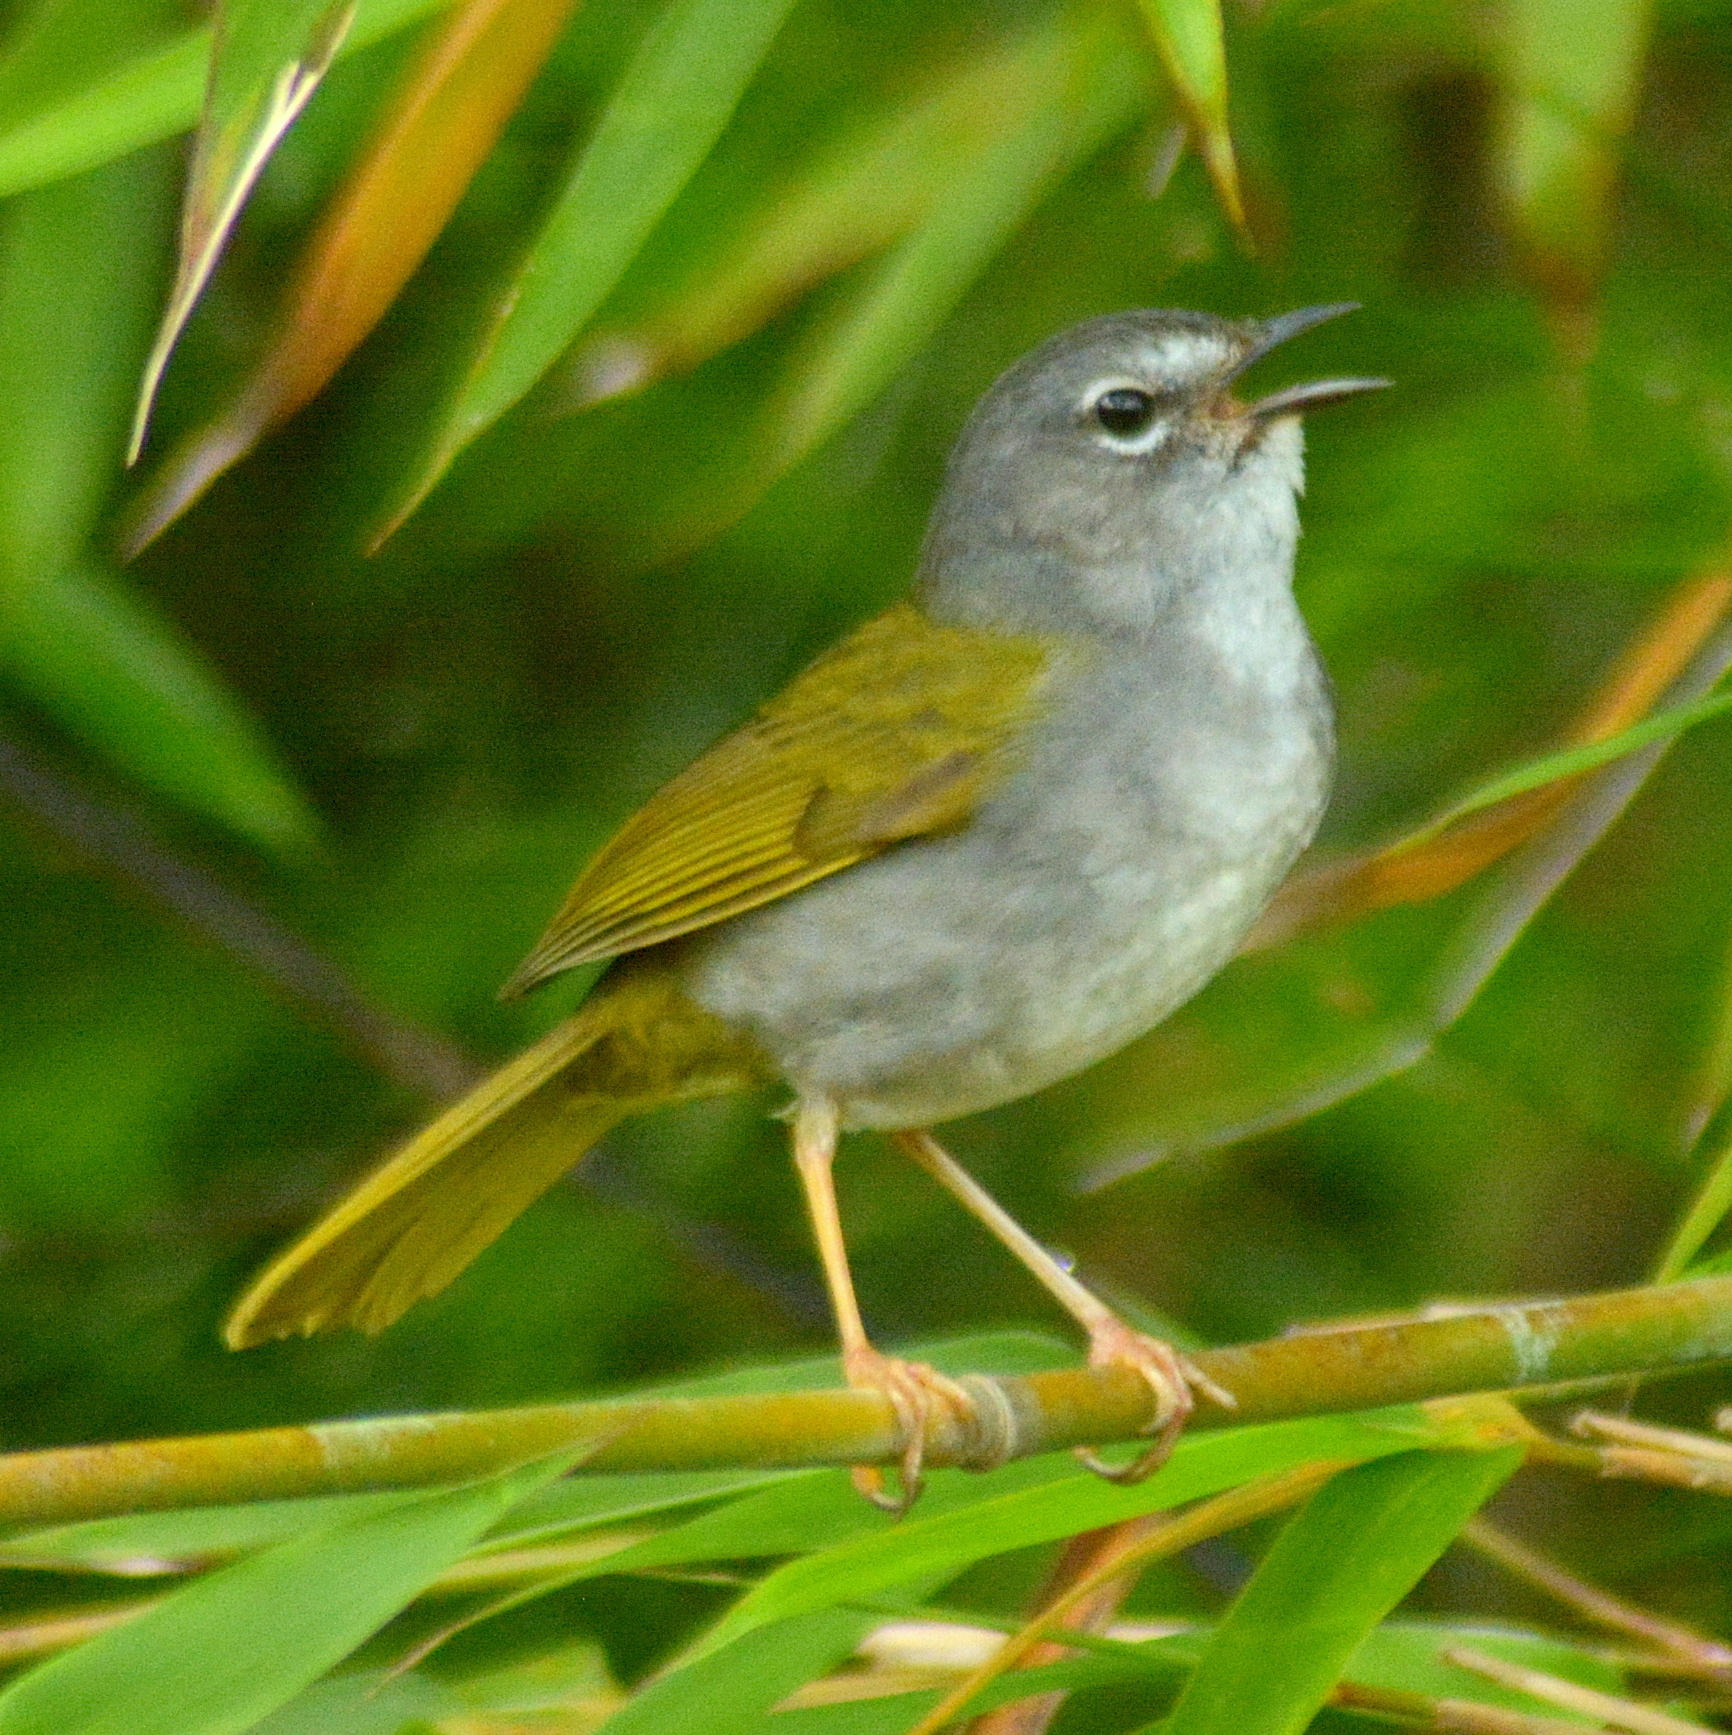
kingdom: Animalia
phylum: Chordata
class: Aves
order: Passeriformes
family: Parulidae
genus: Myiothlypis
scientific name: Myiothlypis leucoblephara
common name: White-rimmed warbler
